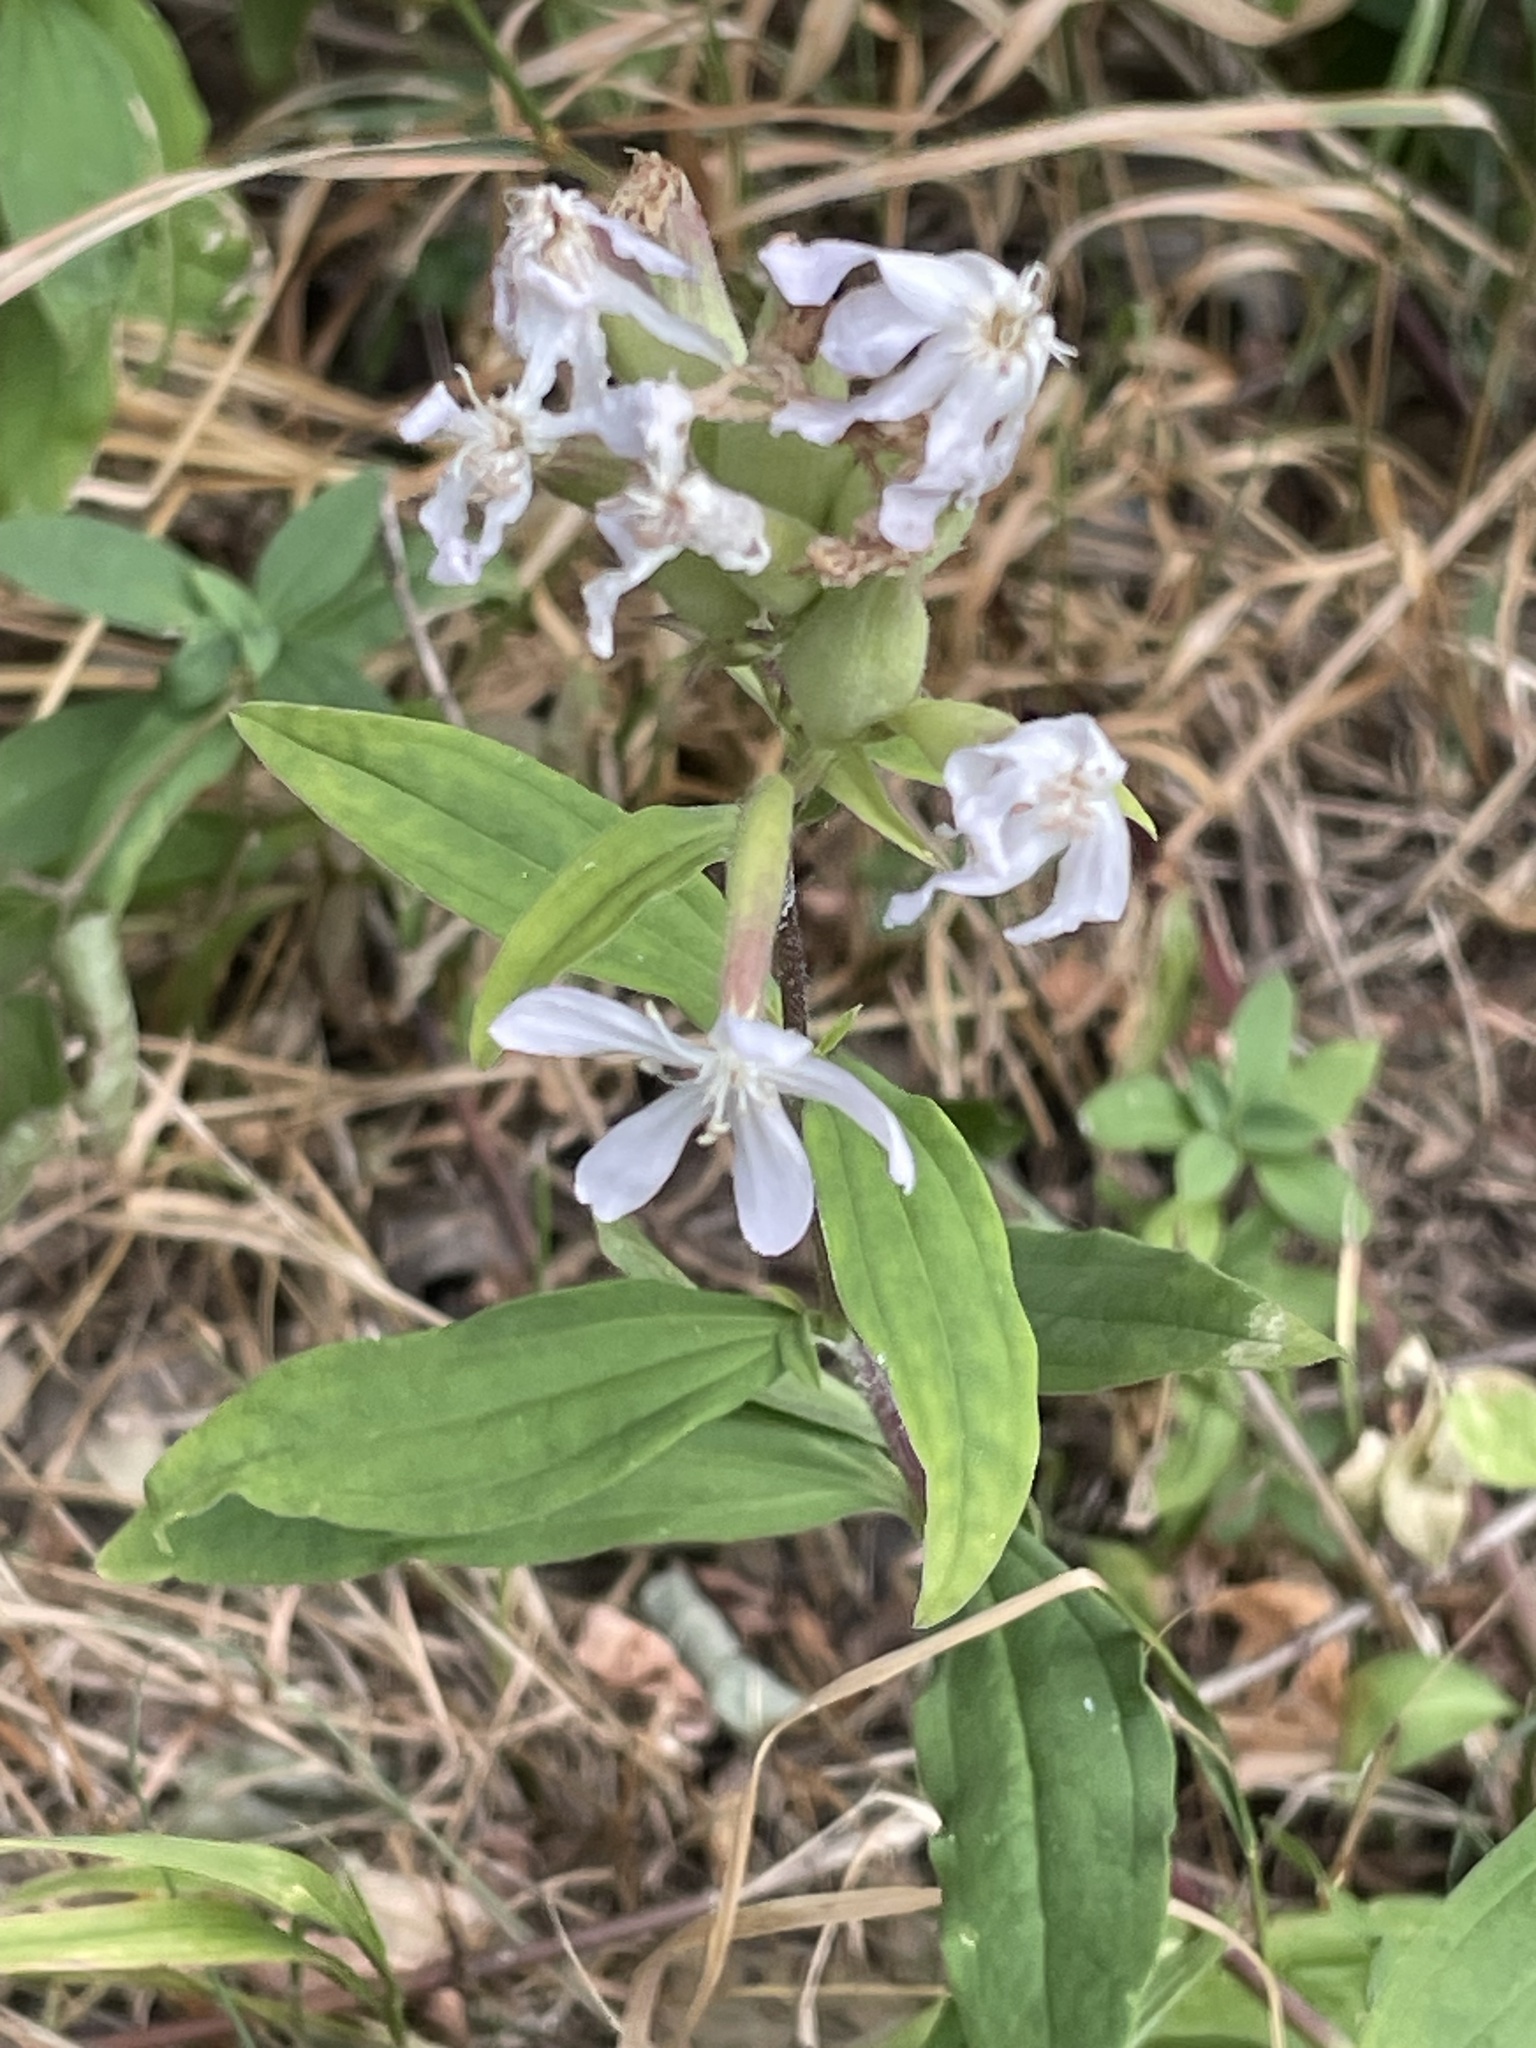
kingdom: Plantae
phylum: Tracheophyta
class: Magnoliopsida
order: Caryophyllales
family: Caryophyllaceae
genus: Saponaria
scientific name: Saponaria officinalis
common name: Soapwort
